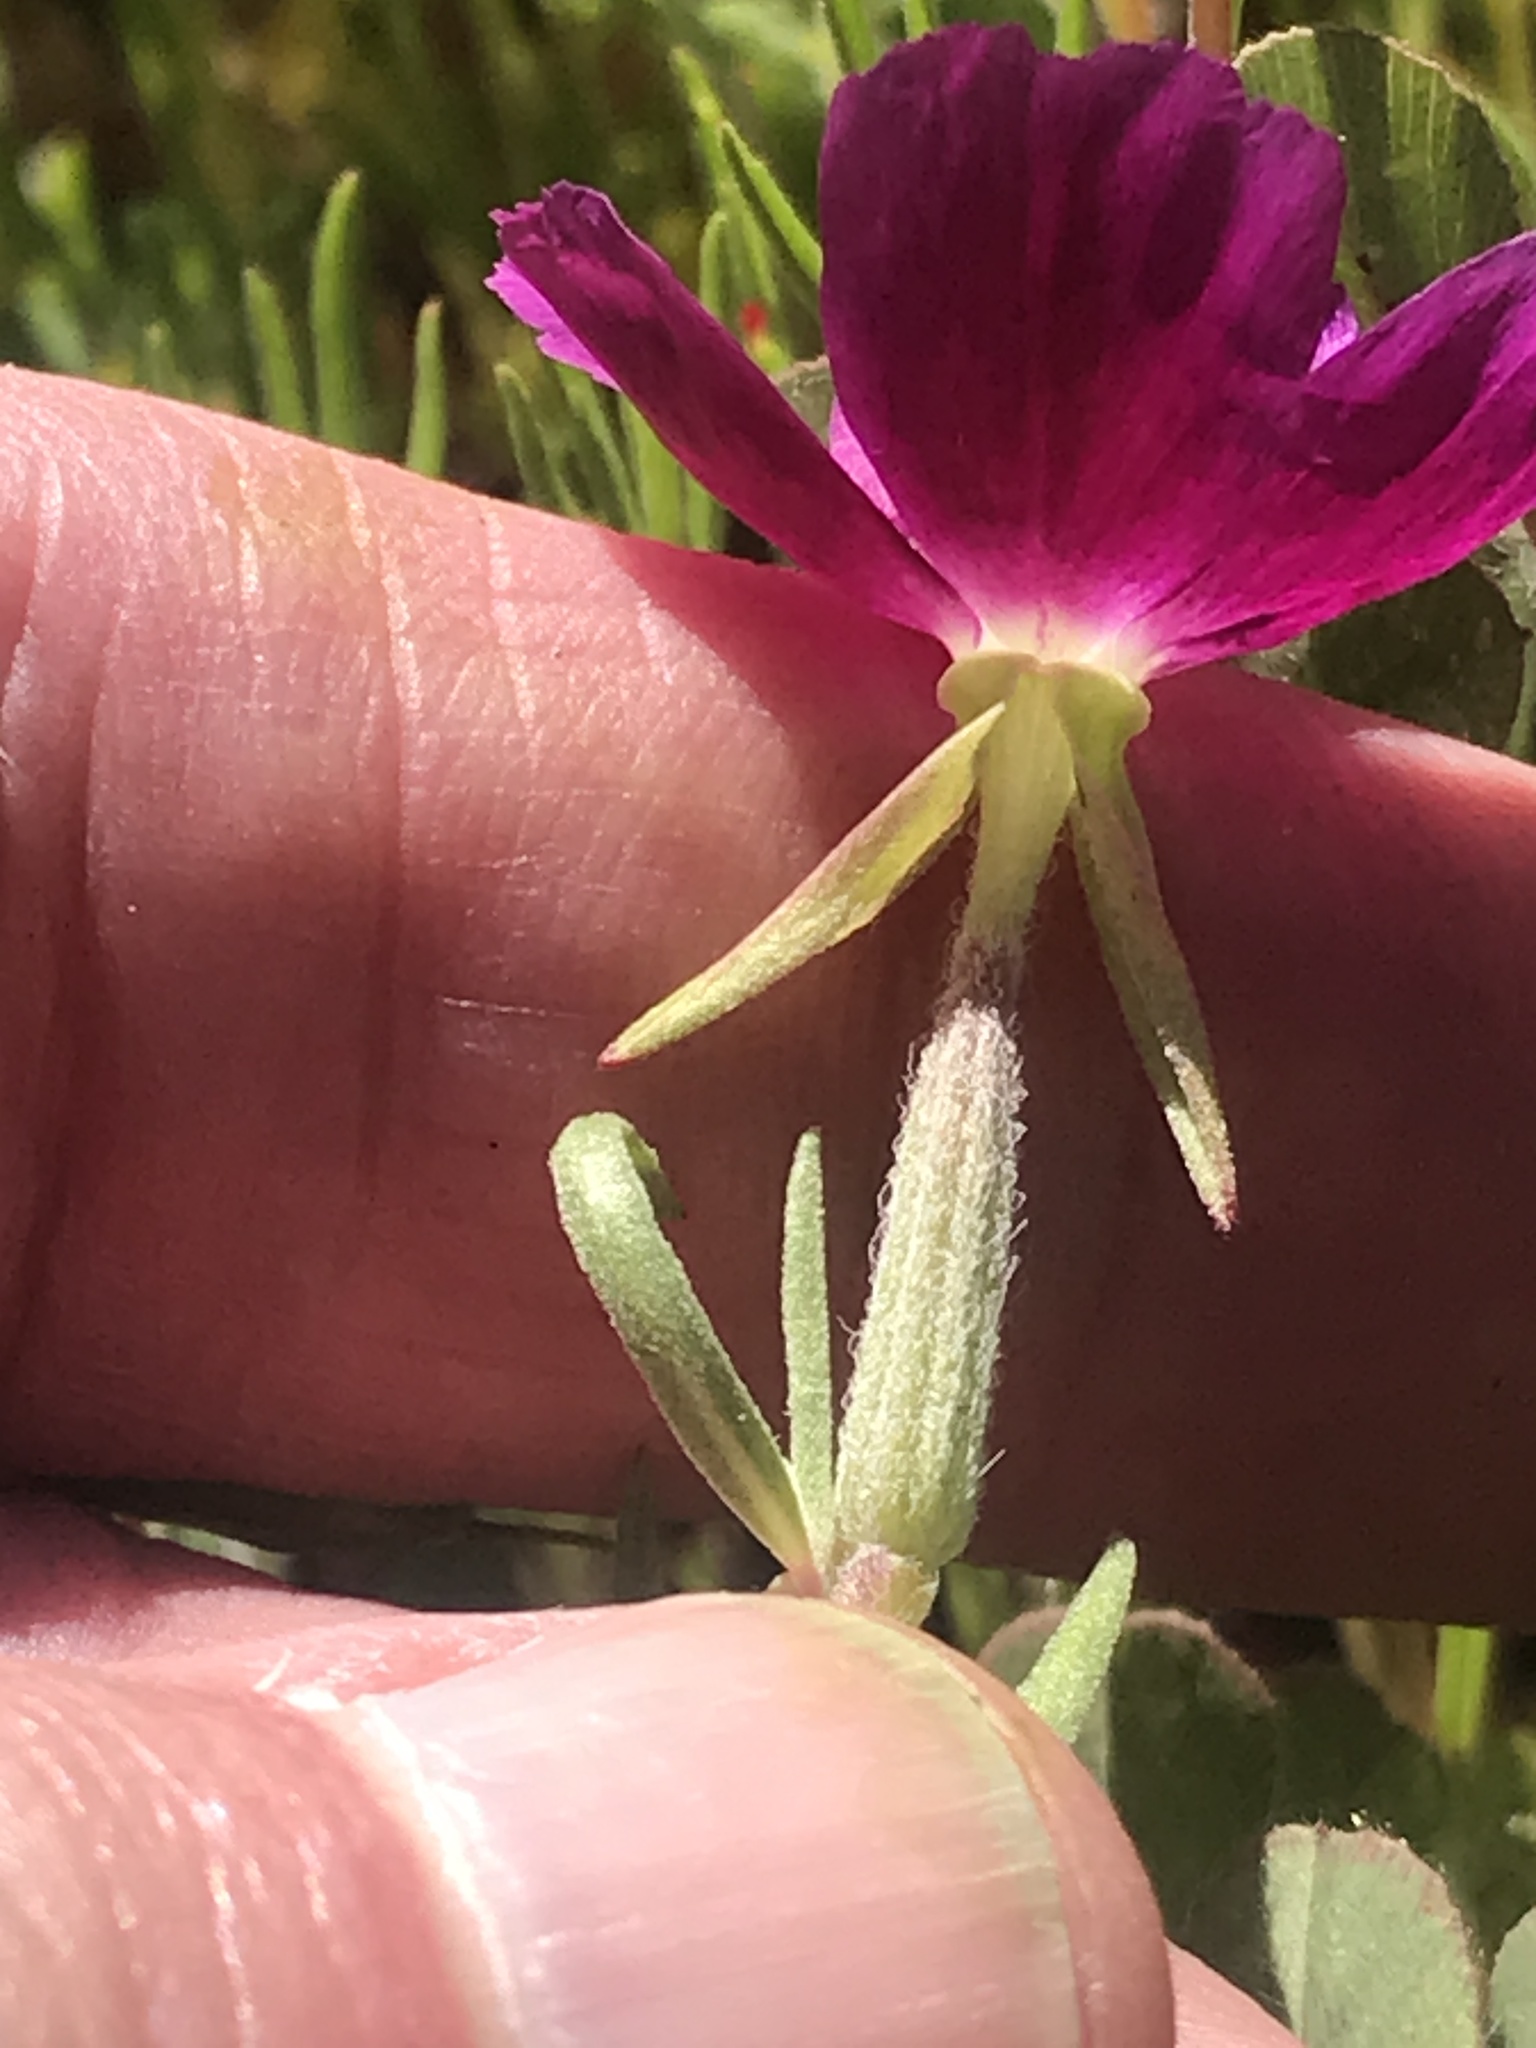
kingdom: Plantae
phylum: Tracheophyta
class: Magnoliopsida
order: Myrtales
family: Onagraceae
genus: Clarkia
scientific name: Clarkia purpurea
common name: Purple clarkia
